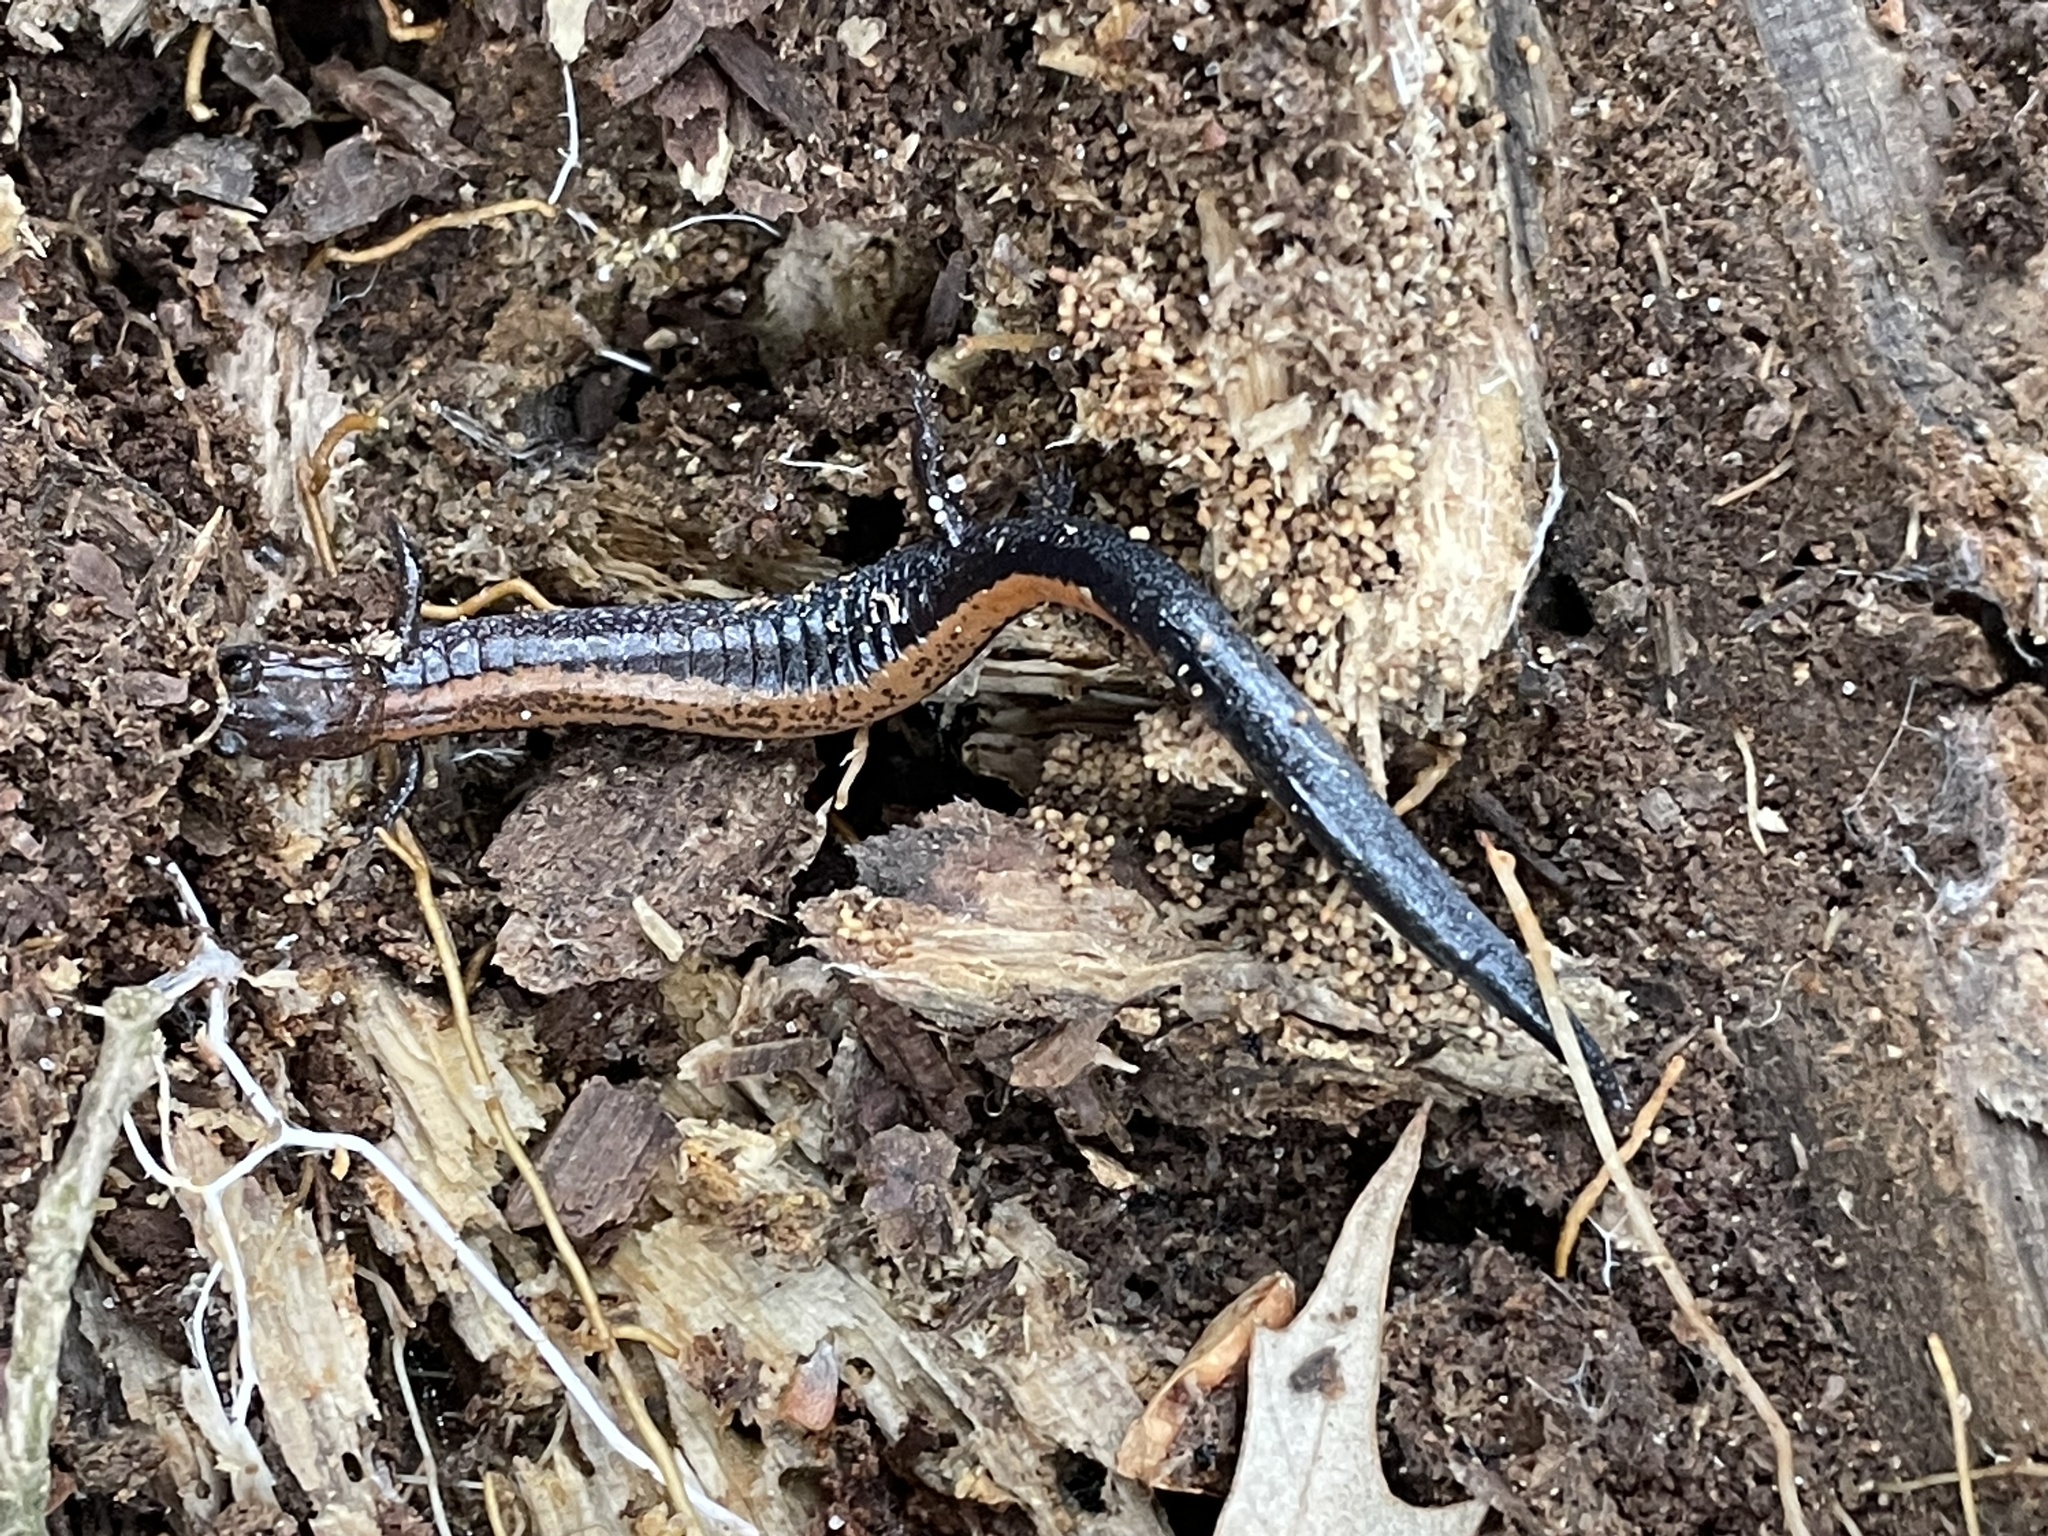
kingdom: Animalia
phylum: Chordata
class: Amphibia
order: Caudata
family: Plethodontidae
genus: Plethodon
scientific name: Plethodon cinereus
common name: Redback salamander
